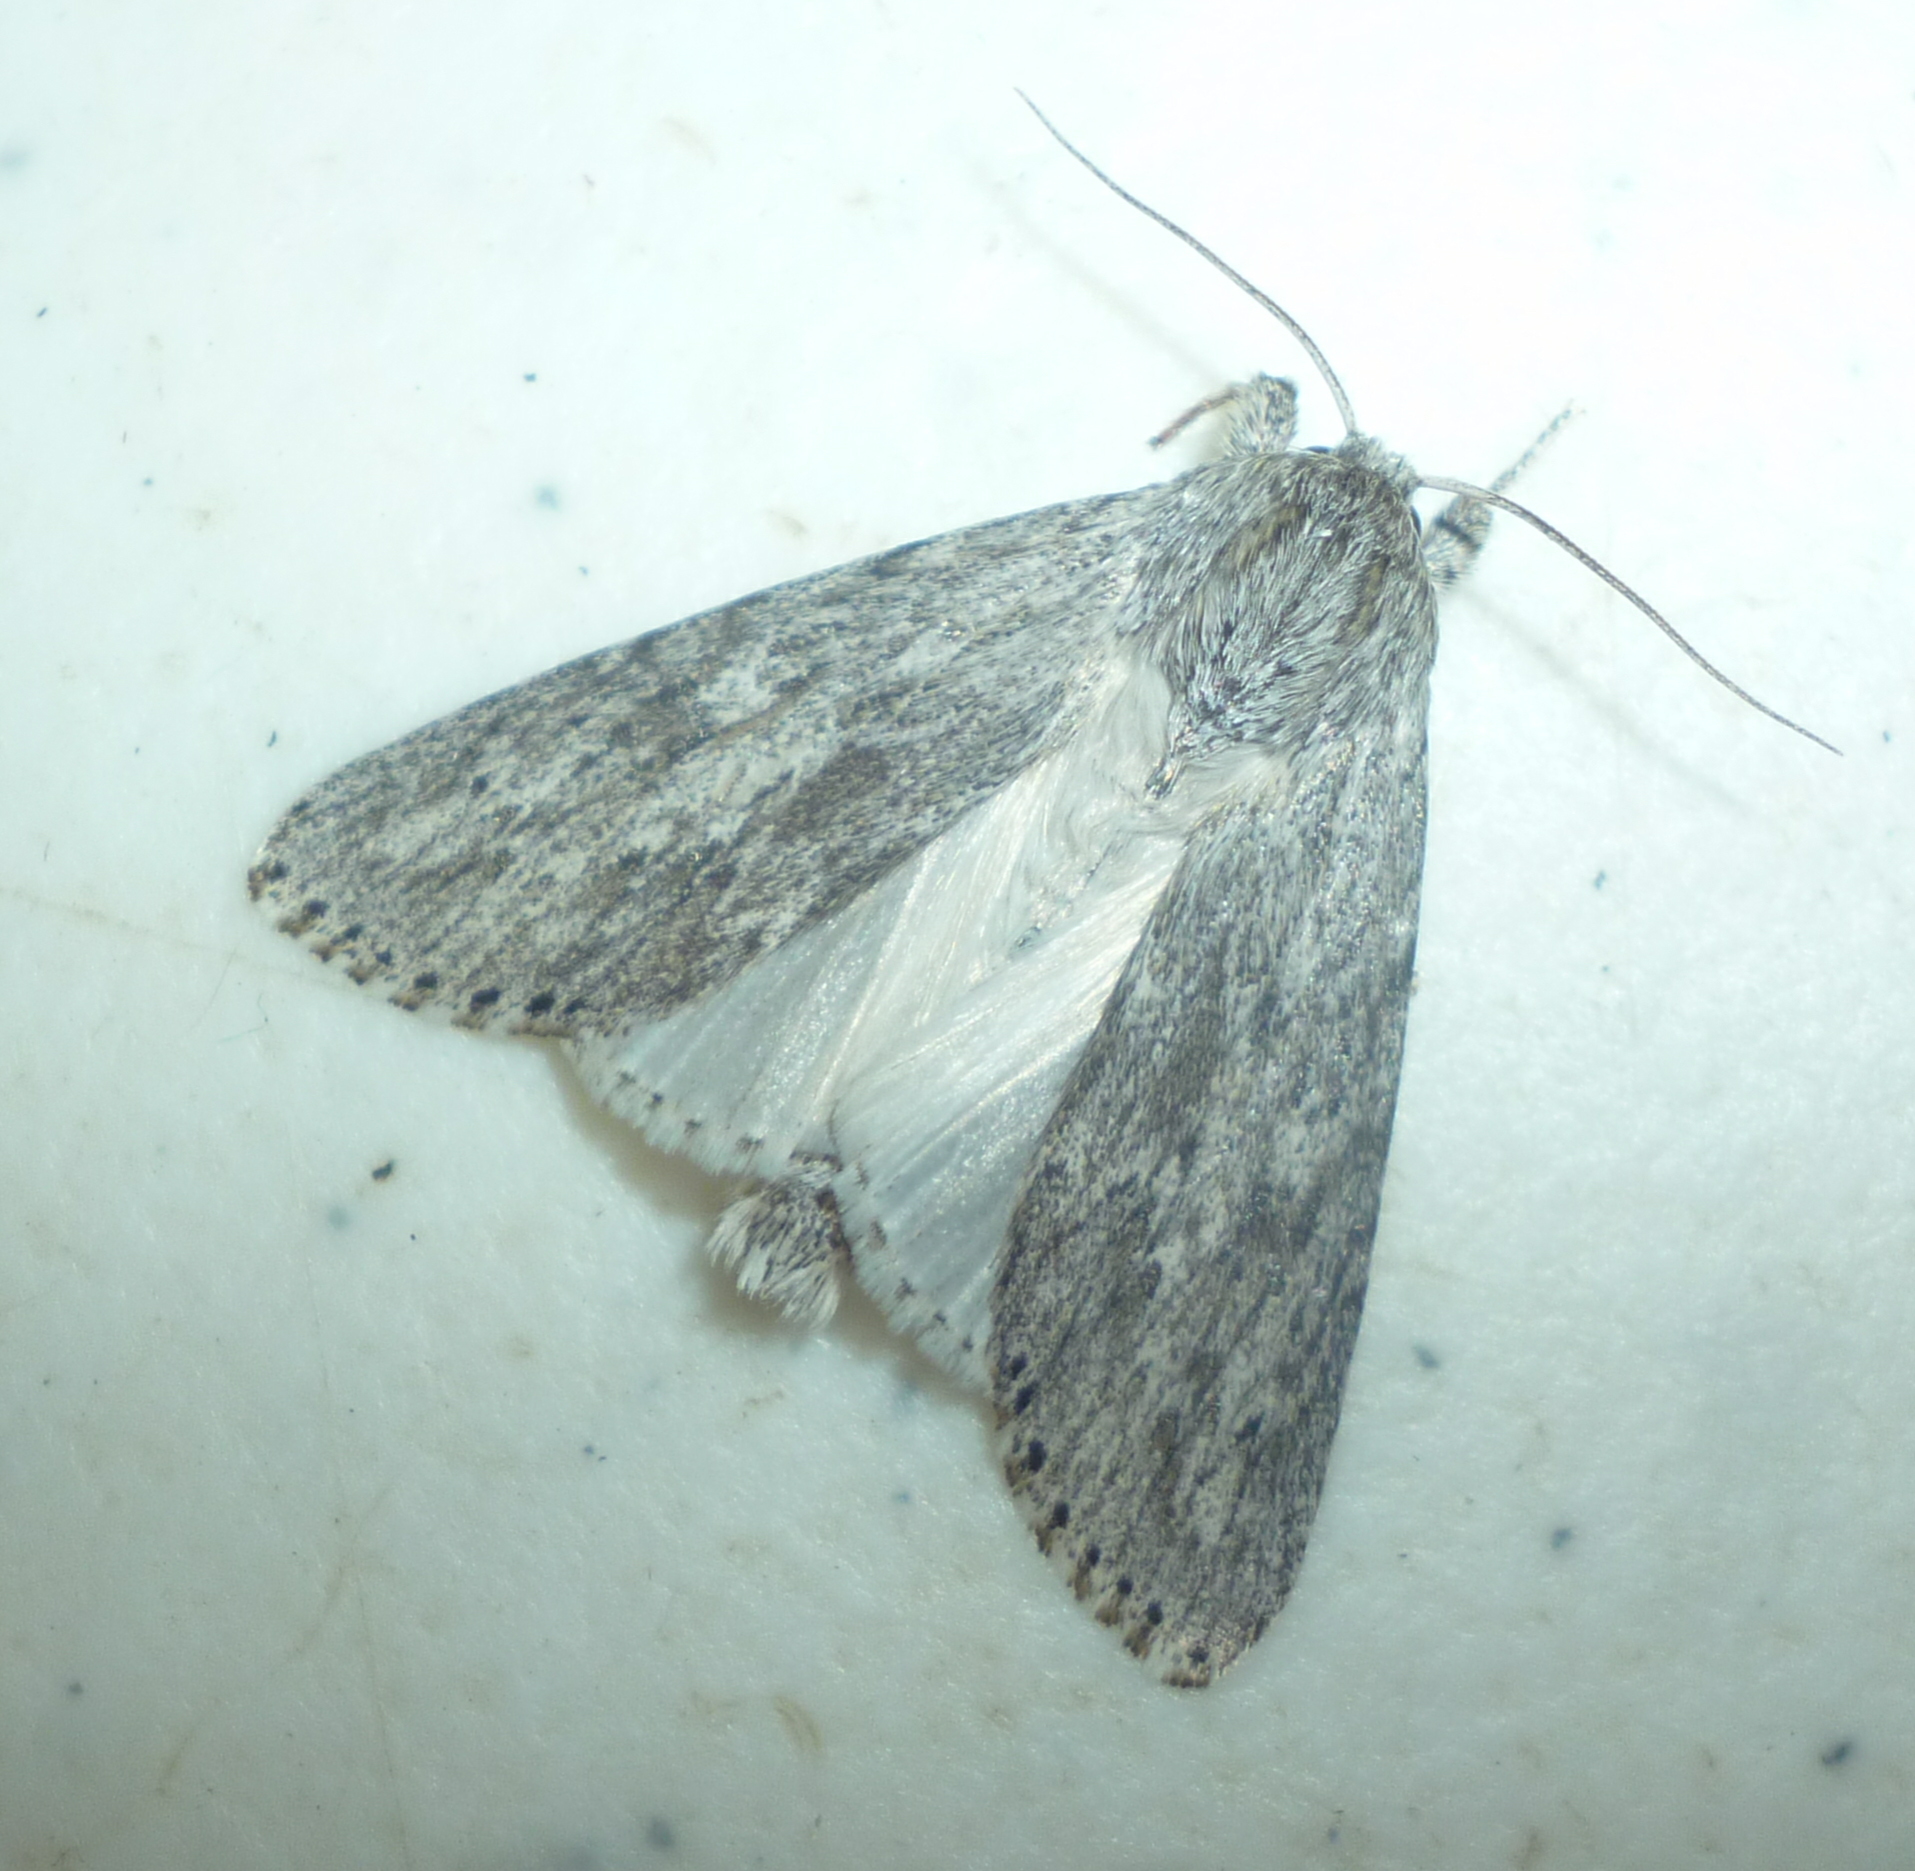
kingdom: Animalia
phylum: Arthropoda
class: Insecta
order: Lepidoptera
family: Noctuidae
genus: Acronicta
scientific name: Acronicta oblinita
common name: Smeared dagger
